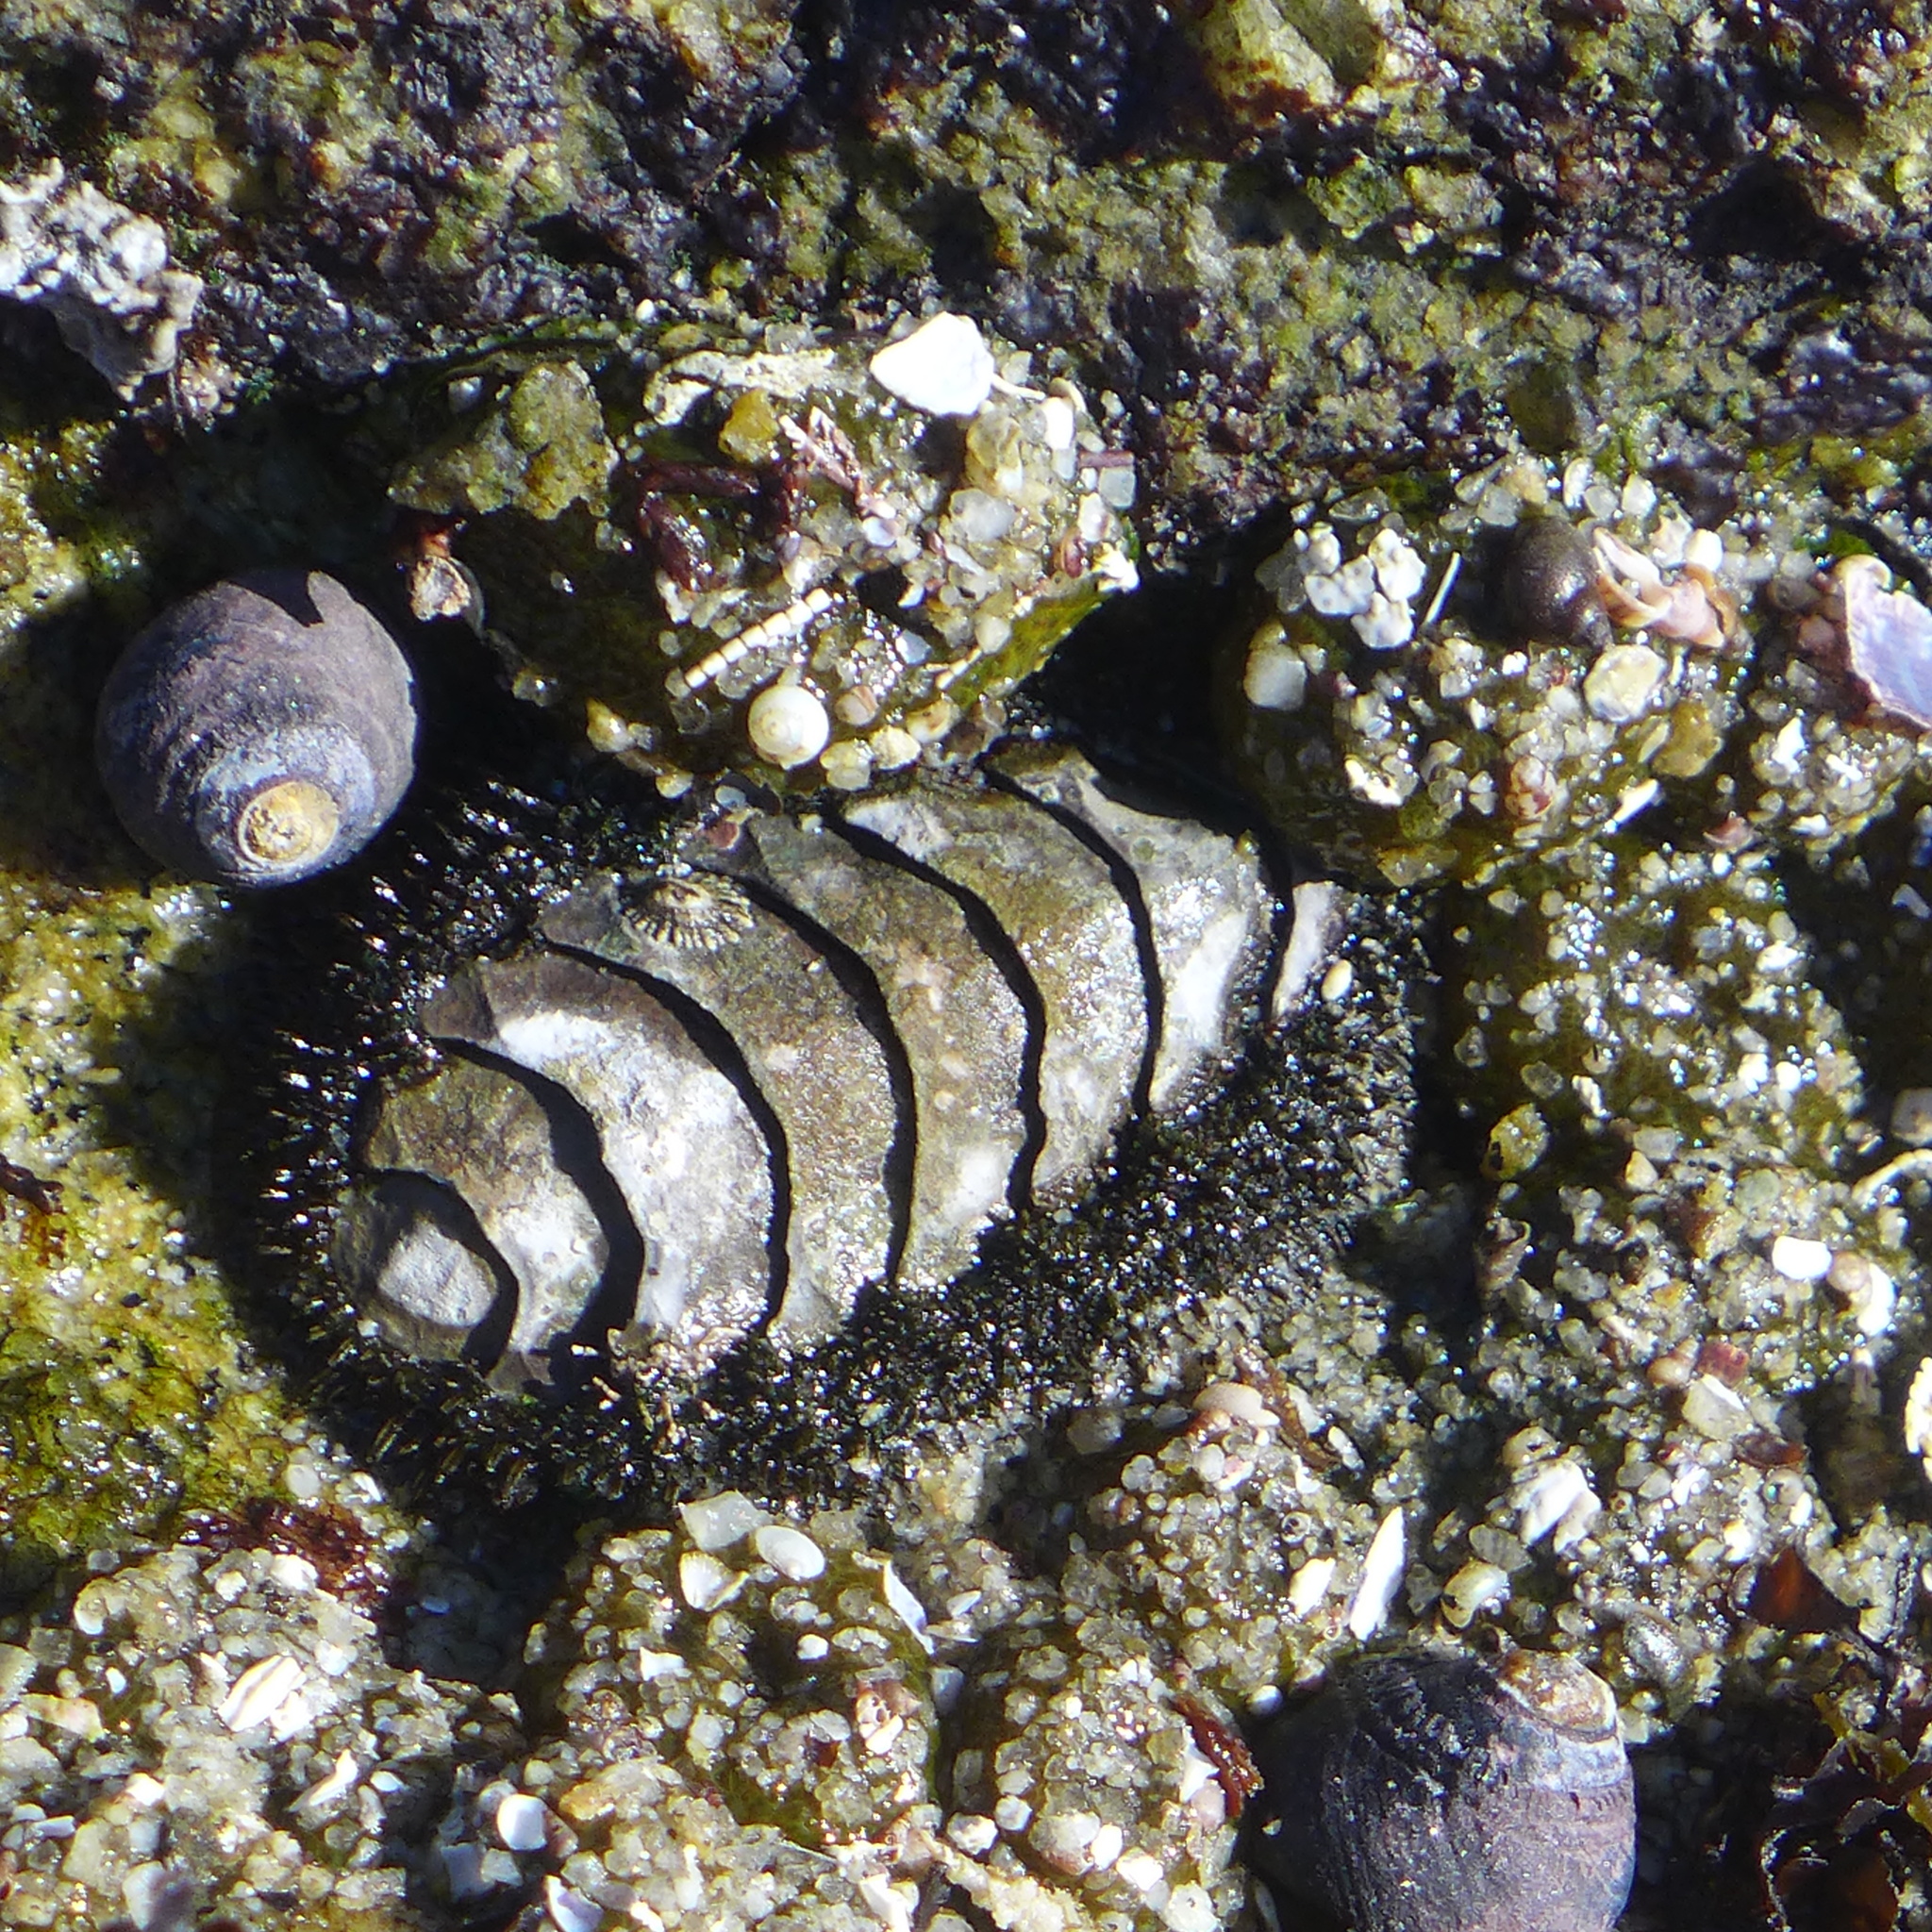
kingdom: Animalia
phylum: Mollusca
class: Polyplacophora
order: Chitonida
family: Mopaliidae
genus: Mopalia
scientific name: Mopalia muscosa
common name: Mossy chiton
